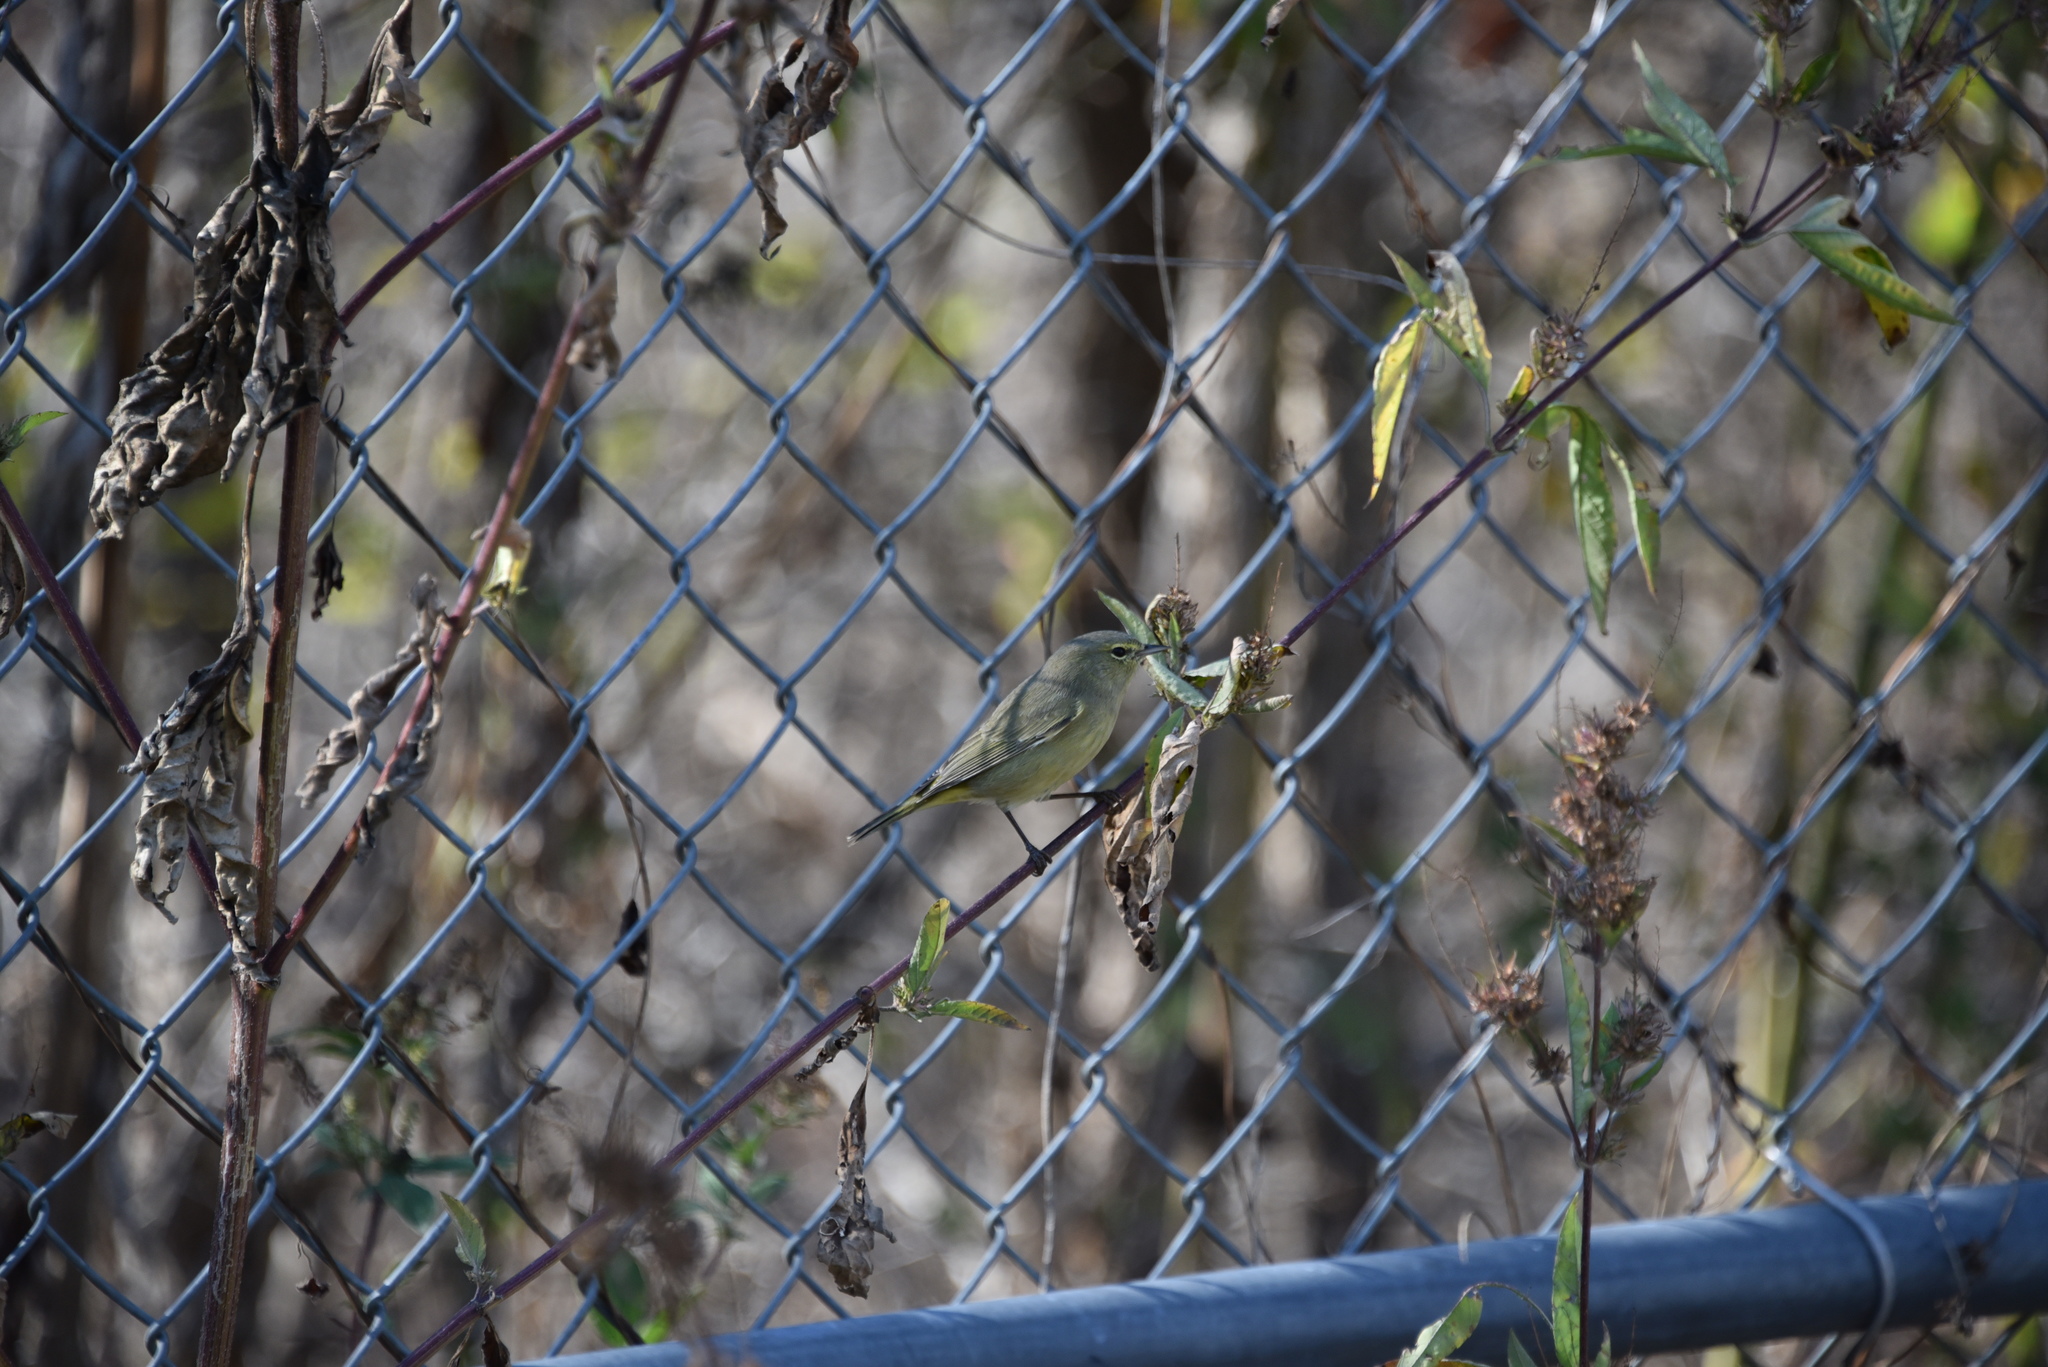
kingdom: Animalia
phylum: Chordata
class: Aves
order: Passeriformes
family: Parulidae
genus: Leiothlypis
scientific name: Leiothlypis celata
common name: Orange-crowned warbler
